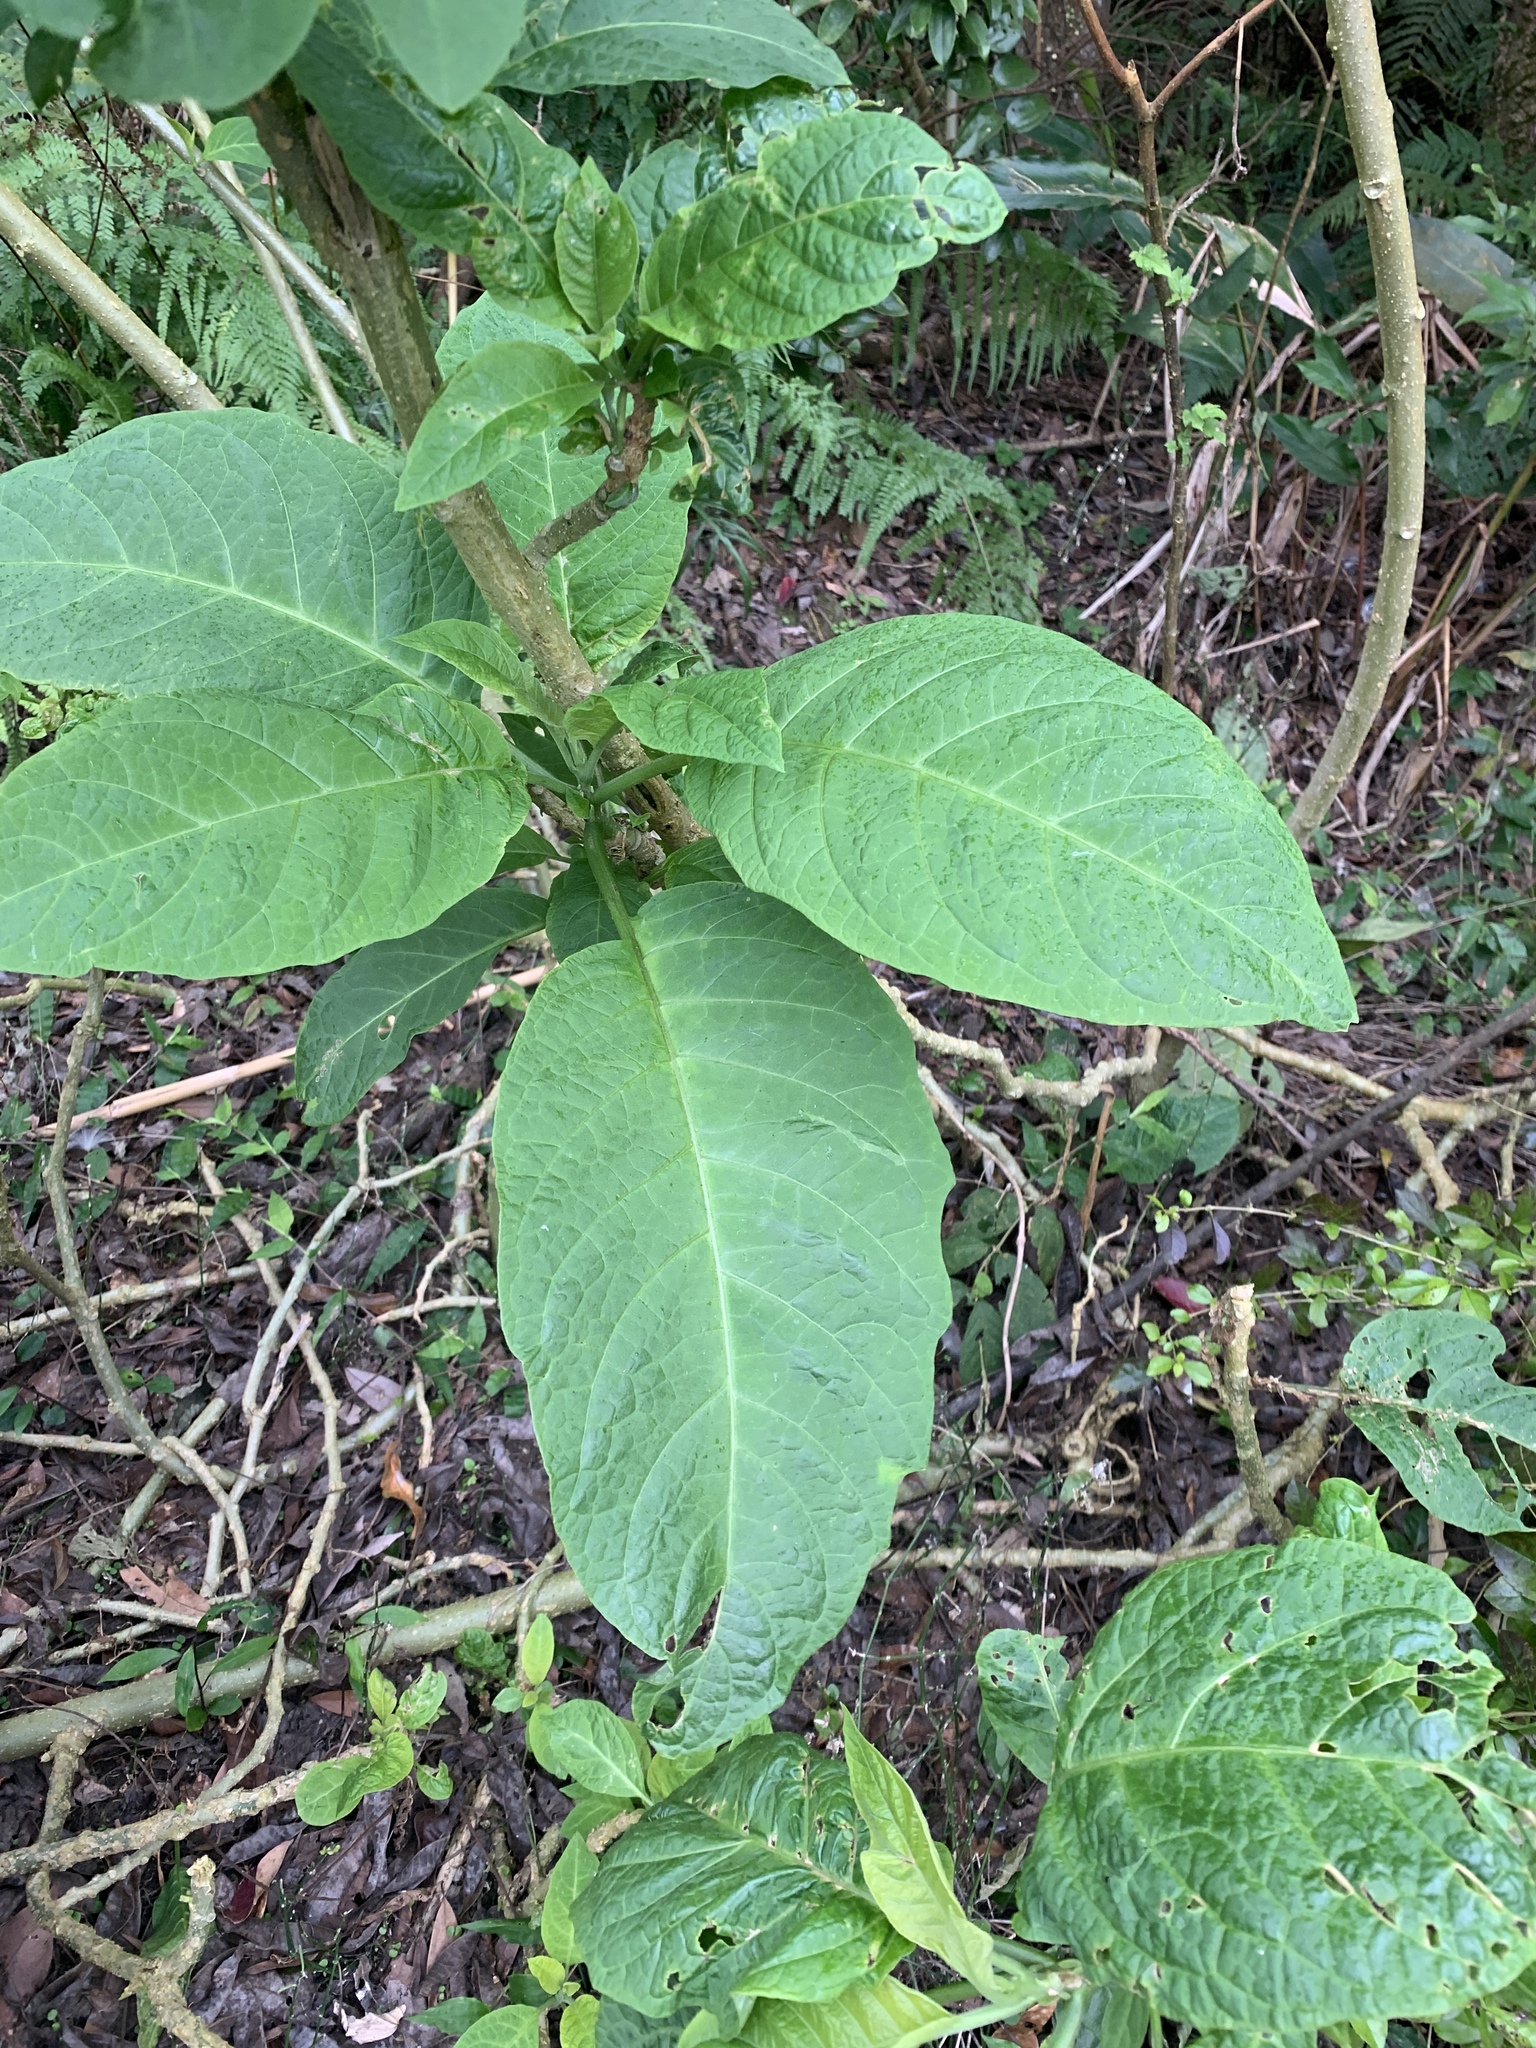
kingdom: Plantae
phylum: Tracheophyta
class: Magnoliopsida
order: Solanales
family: Solanaceae
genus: Brugmansia
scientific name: Brugmansia suaveolens
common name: Angel's tears
